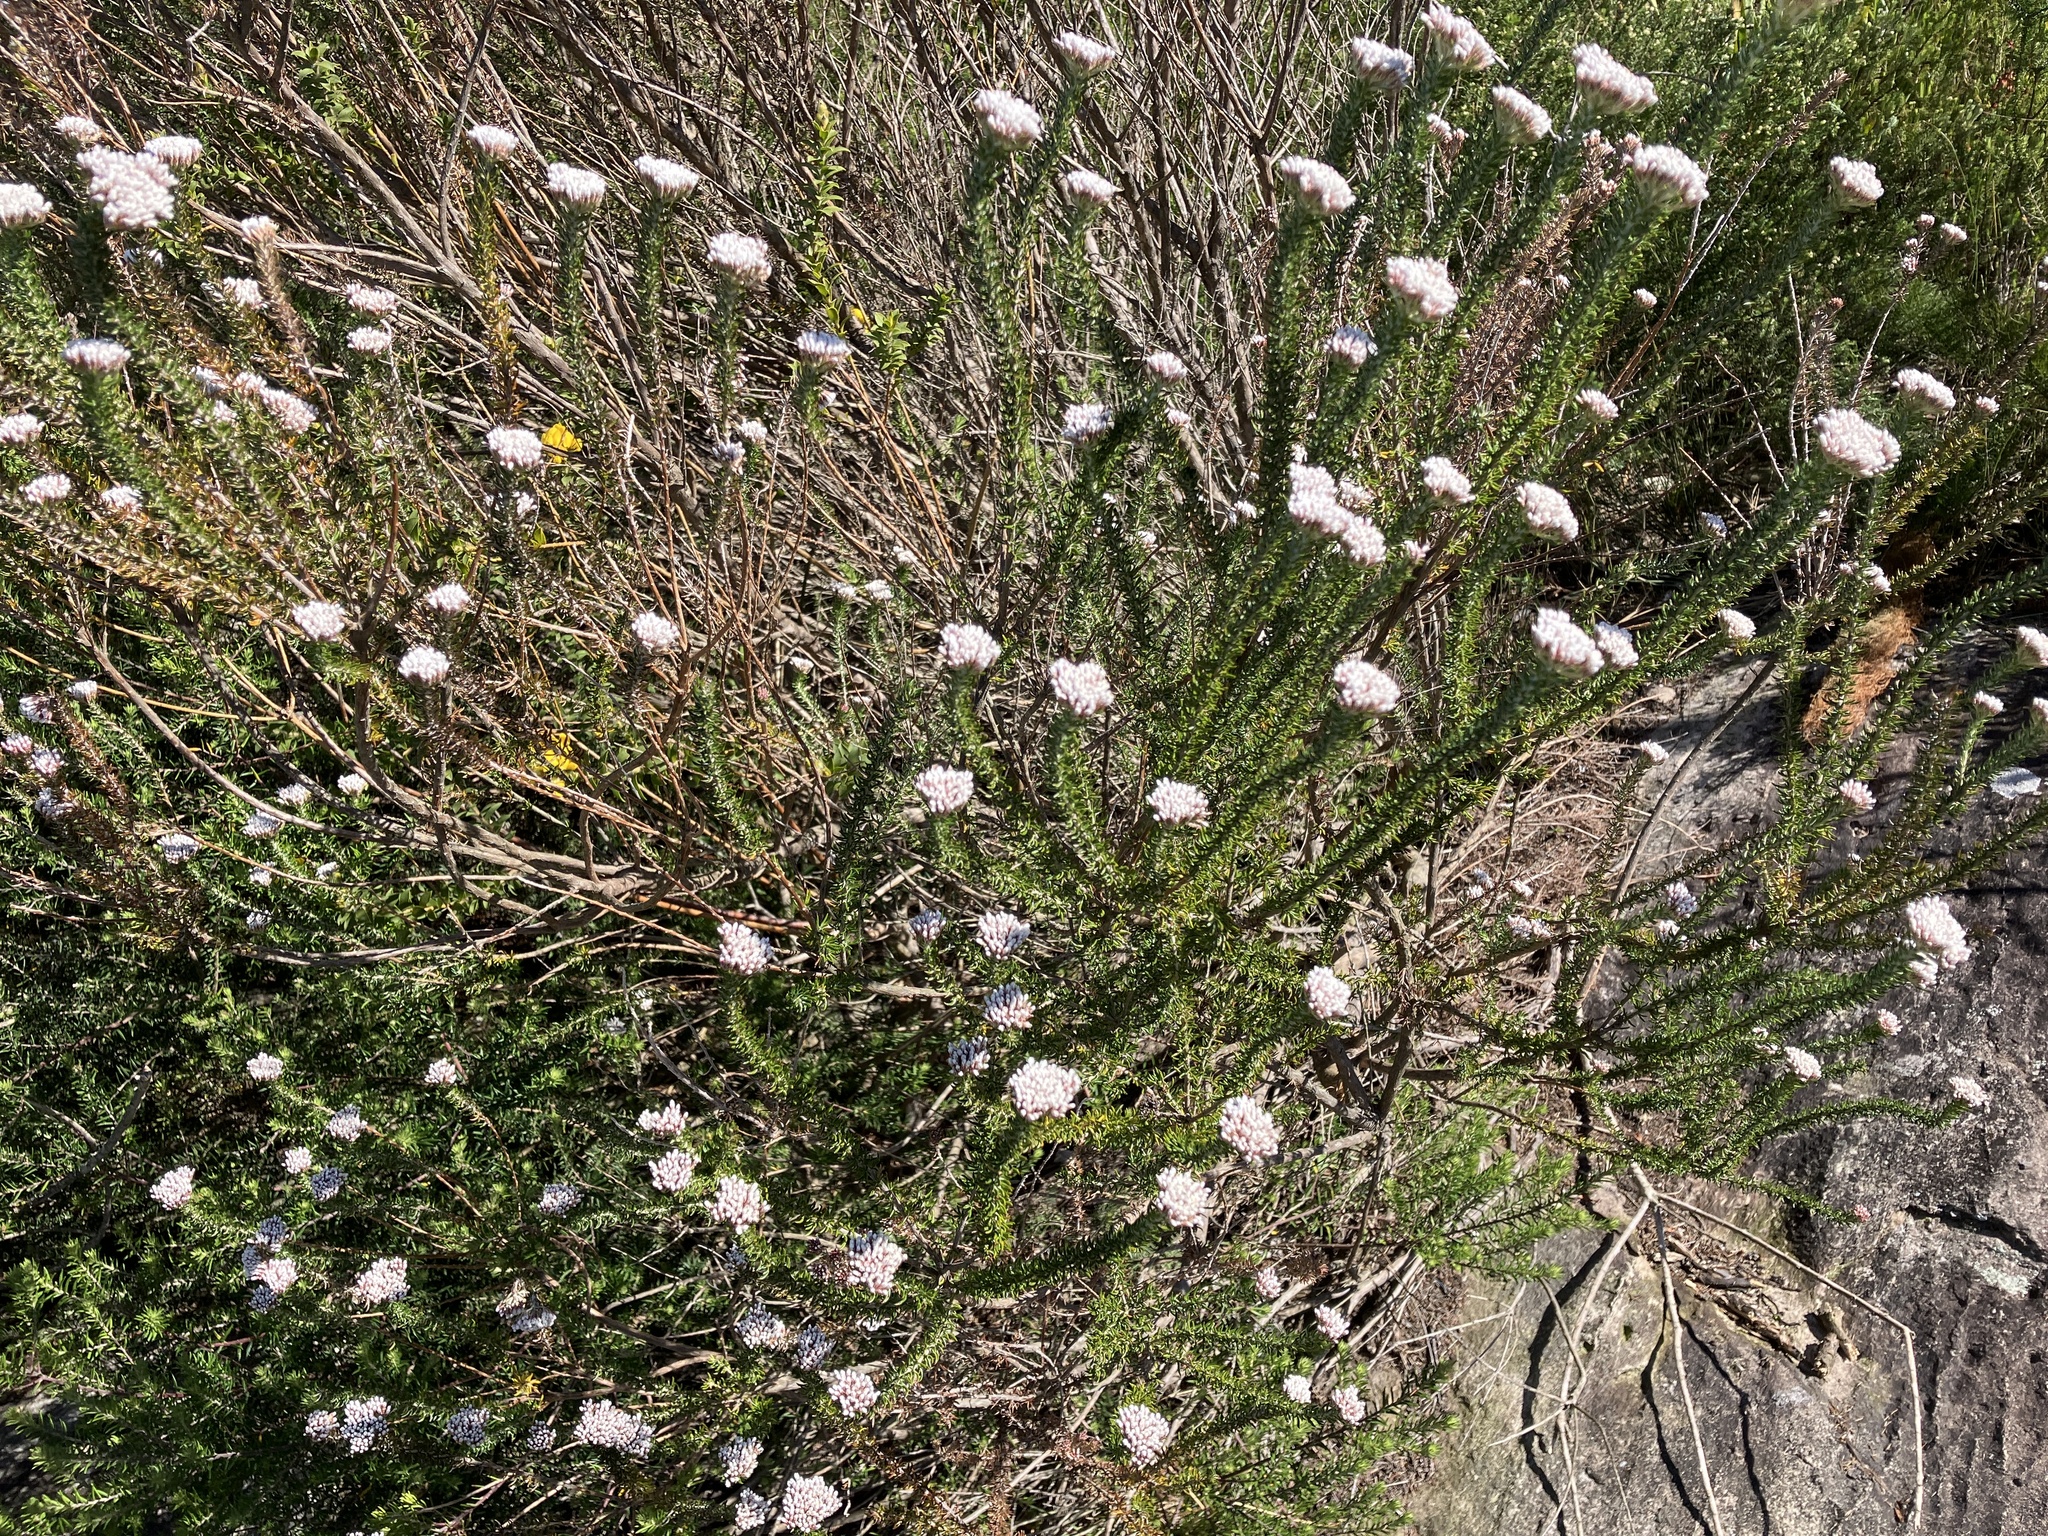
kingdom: Plantae
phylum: Tracheophyta
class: Magnoliopsida
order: Asterales
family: Asteraceae
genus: Metalasia
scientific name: Metalasia densa
